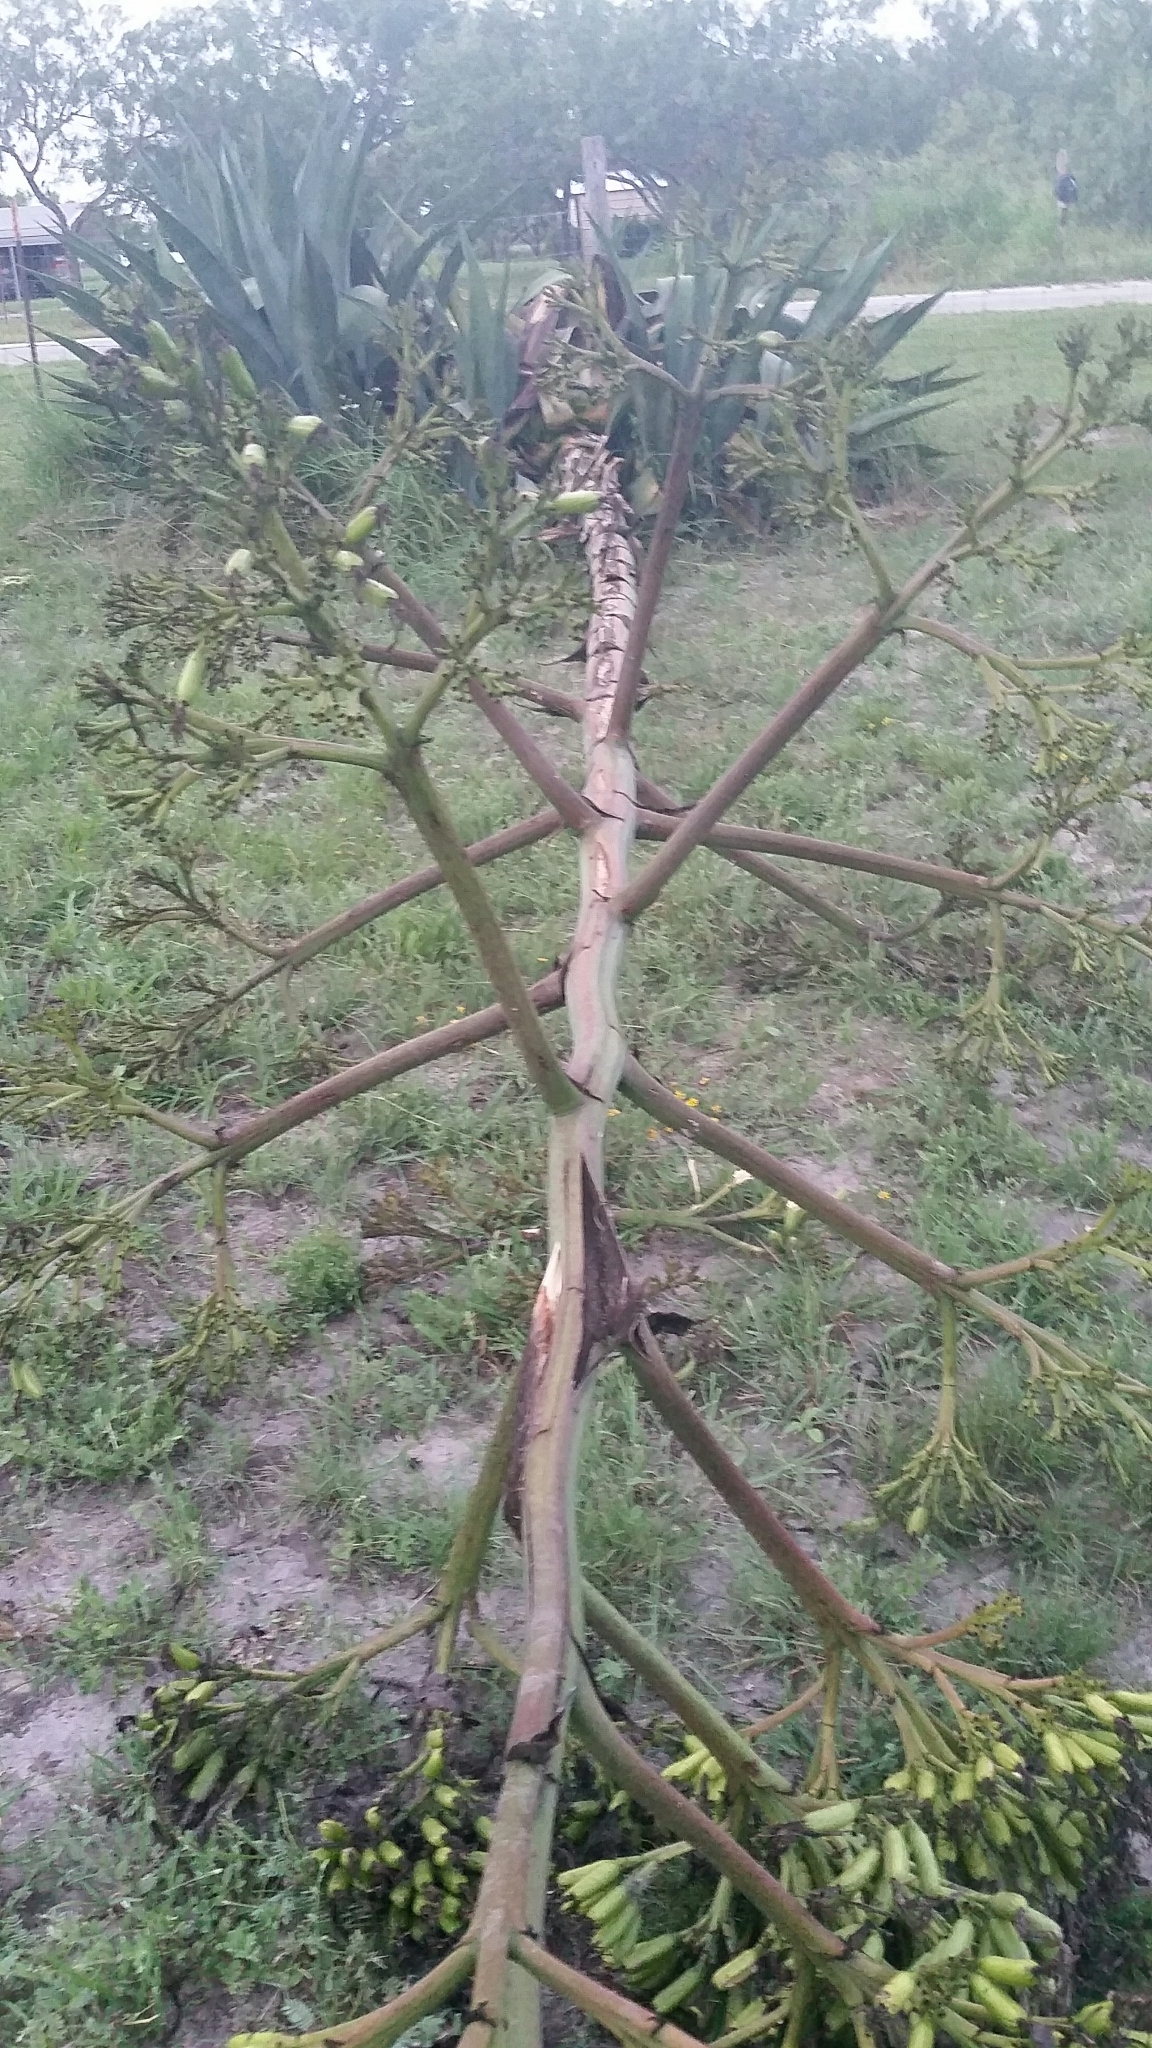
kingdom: Plantae
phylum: Tracheophyta
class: Liliopsida
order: Asparagales
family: Asparagaceae
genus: Agave
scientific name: Agave americana
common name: Centuryplant
